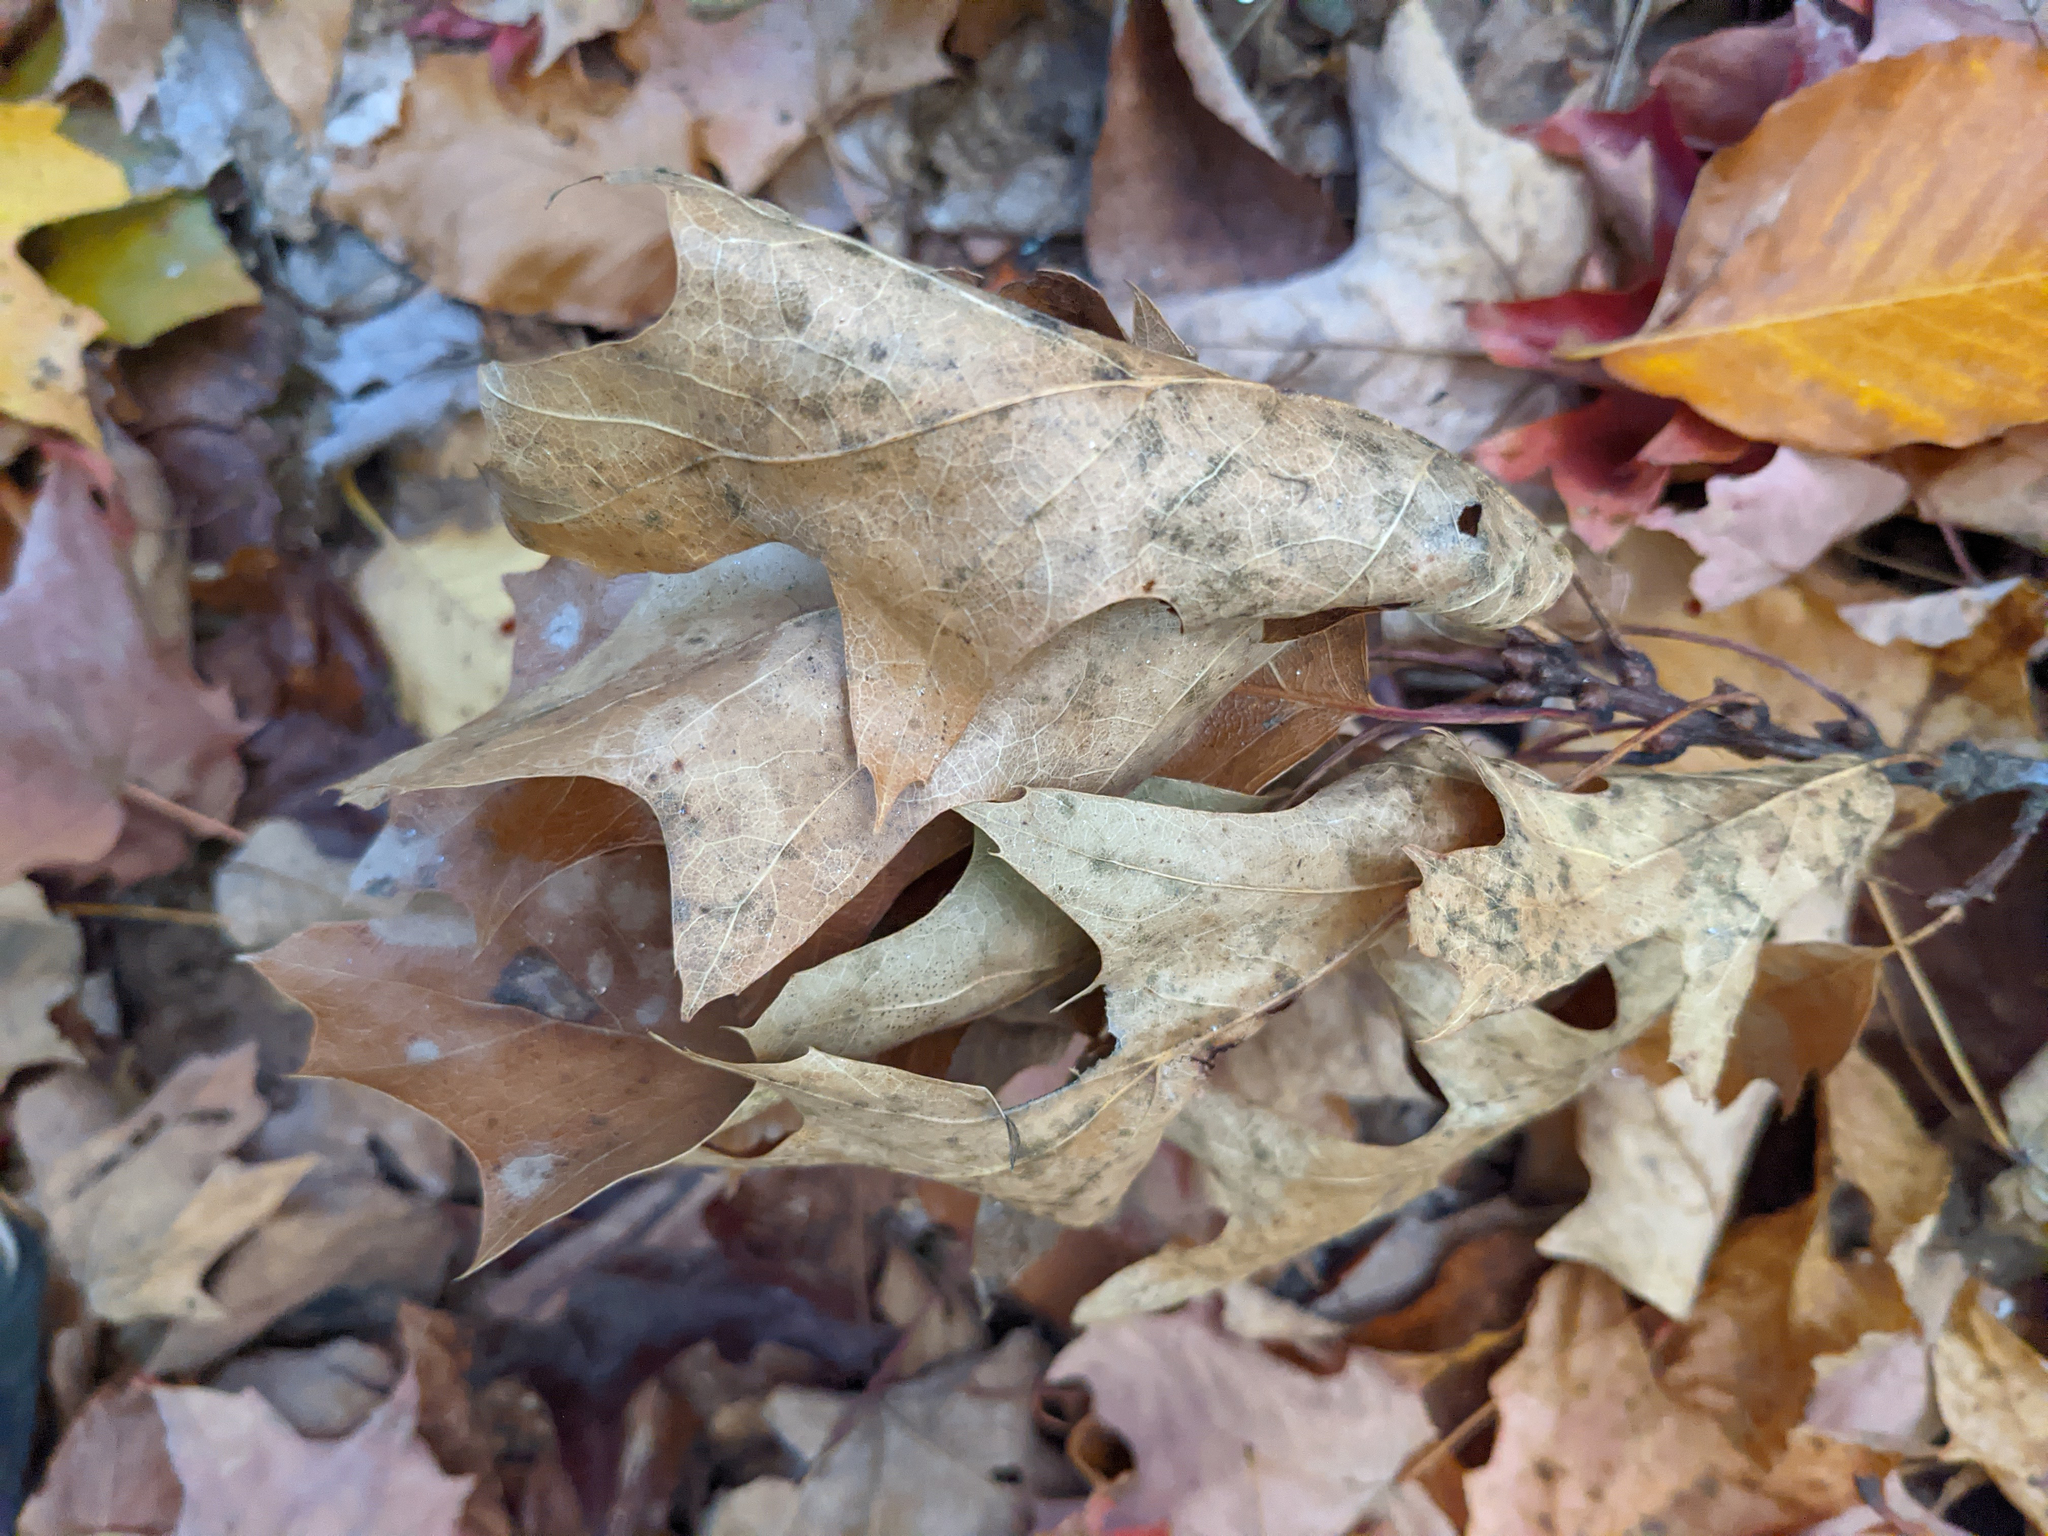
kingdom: Plantae
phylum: Tracheophyta
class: Magnoliopsida
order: Fagales
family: Fagaceae
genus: Quercus
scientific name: Quercus rubra
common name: Red oak
